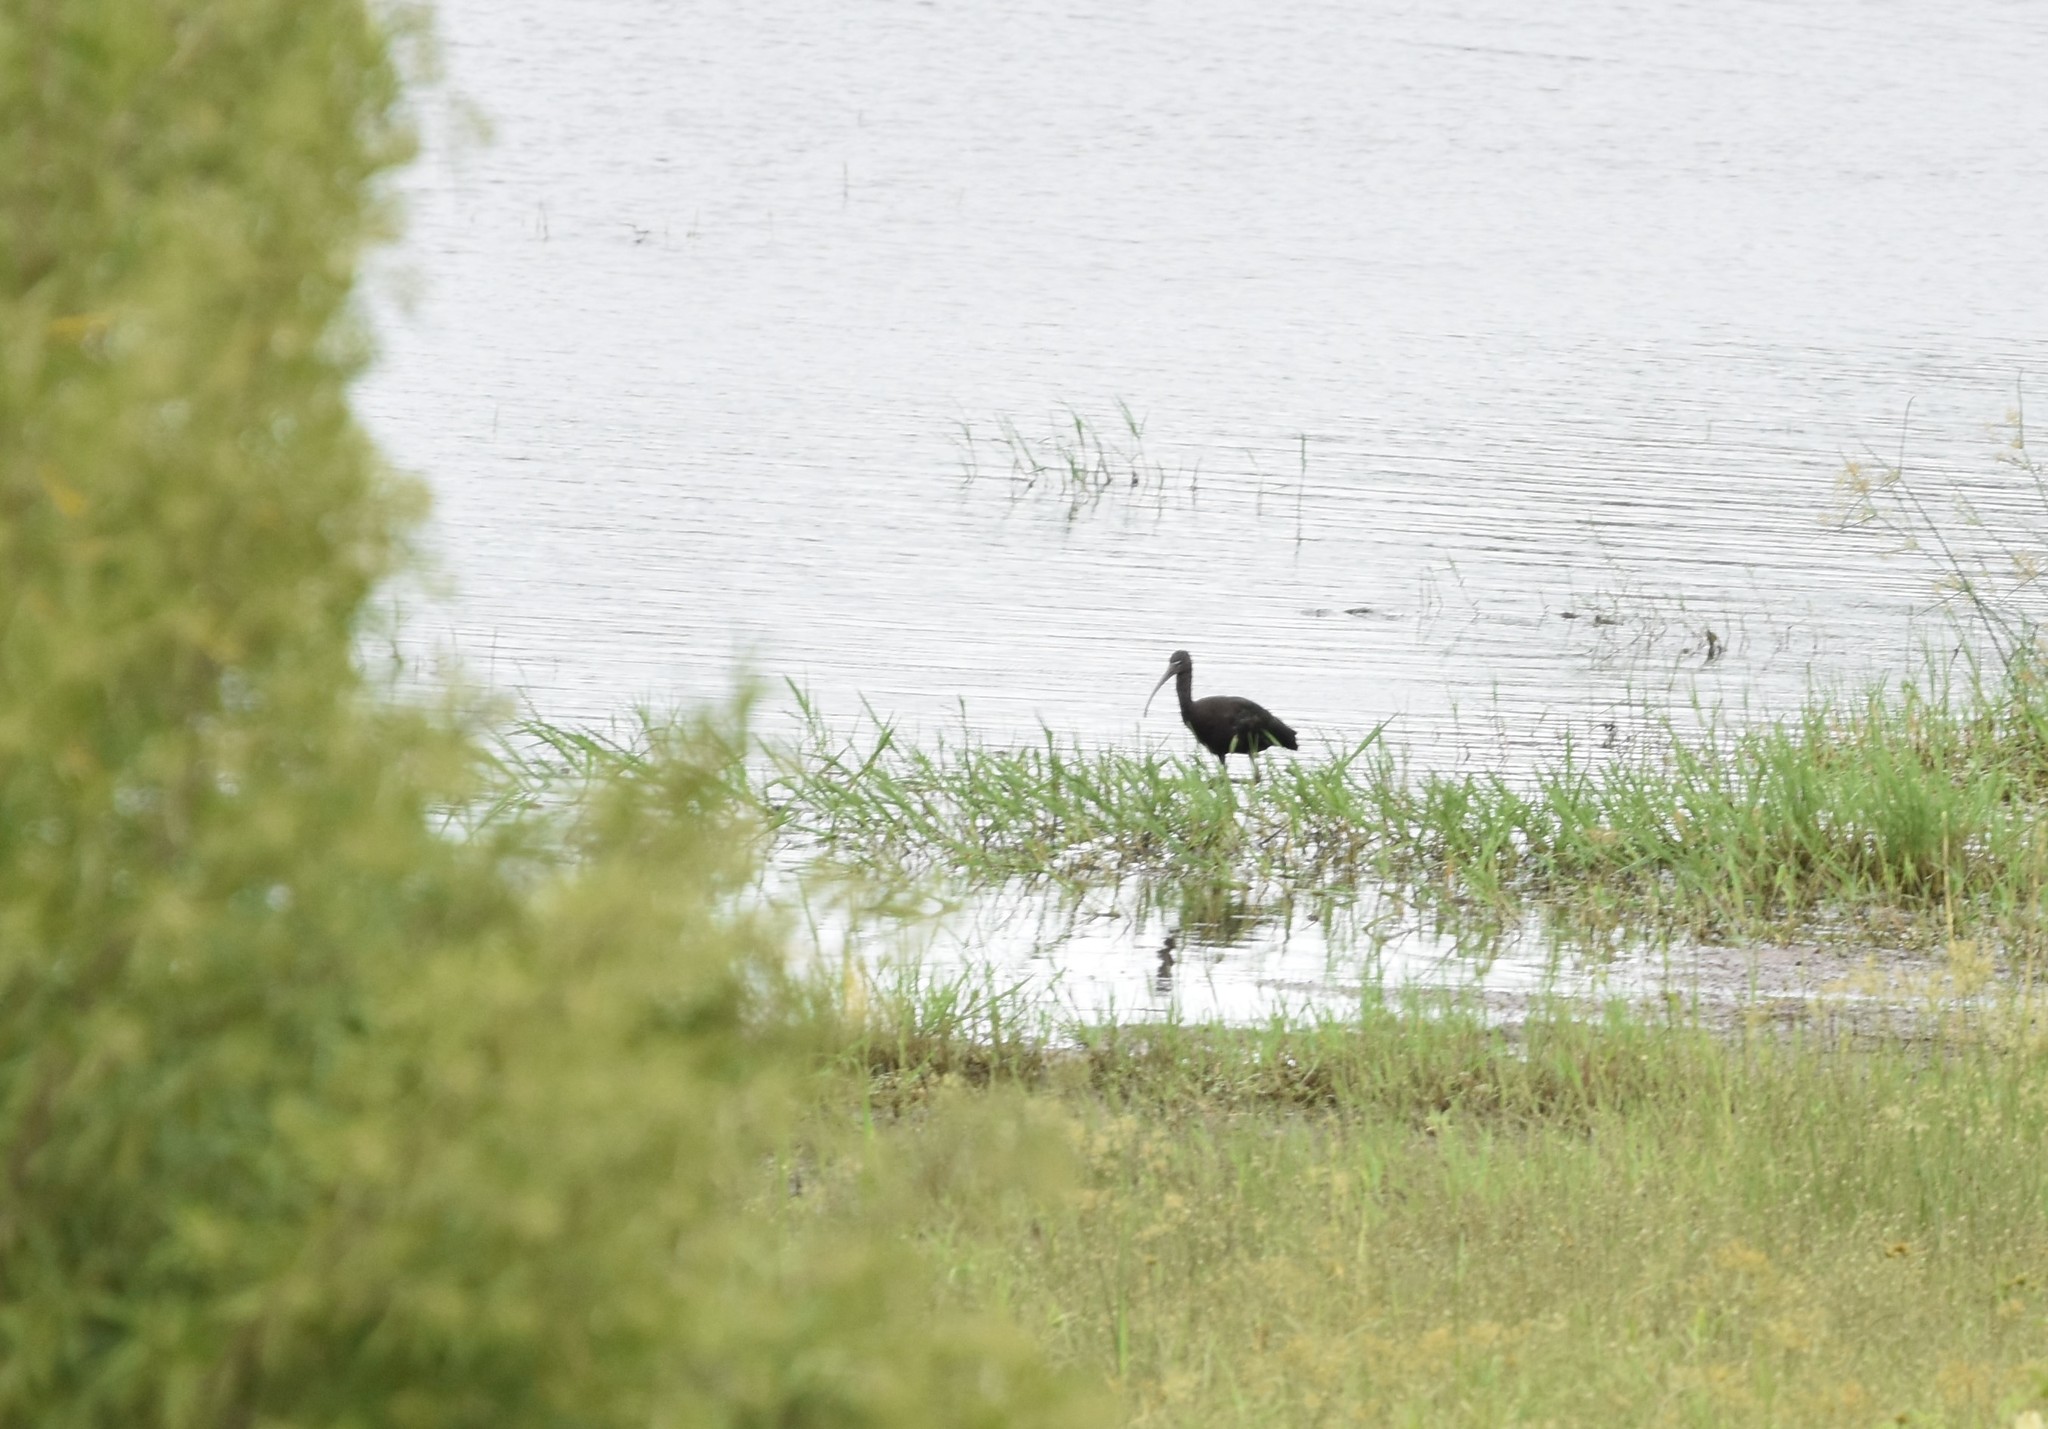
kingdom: Animalia
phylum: Chordata
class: Aves
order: Pelecaniformes
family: Threskiornithidae
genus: Plegadis
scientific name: Plegadis falcinellus
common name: Glossy ibis
